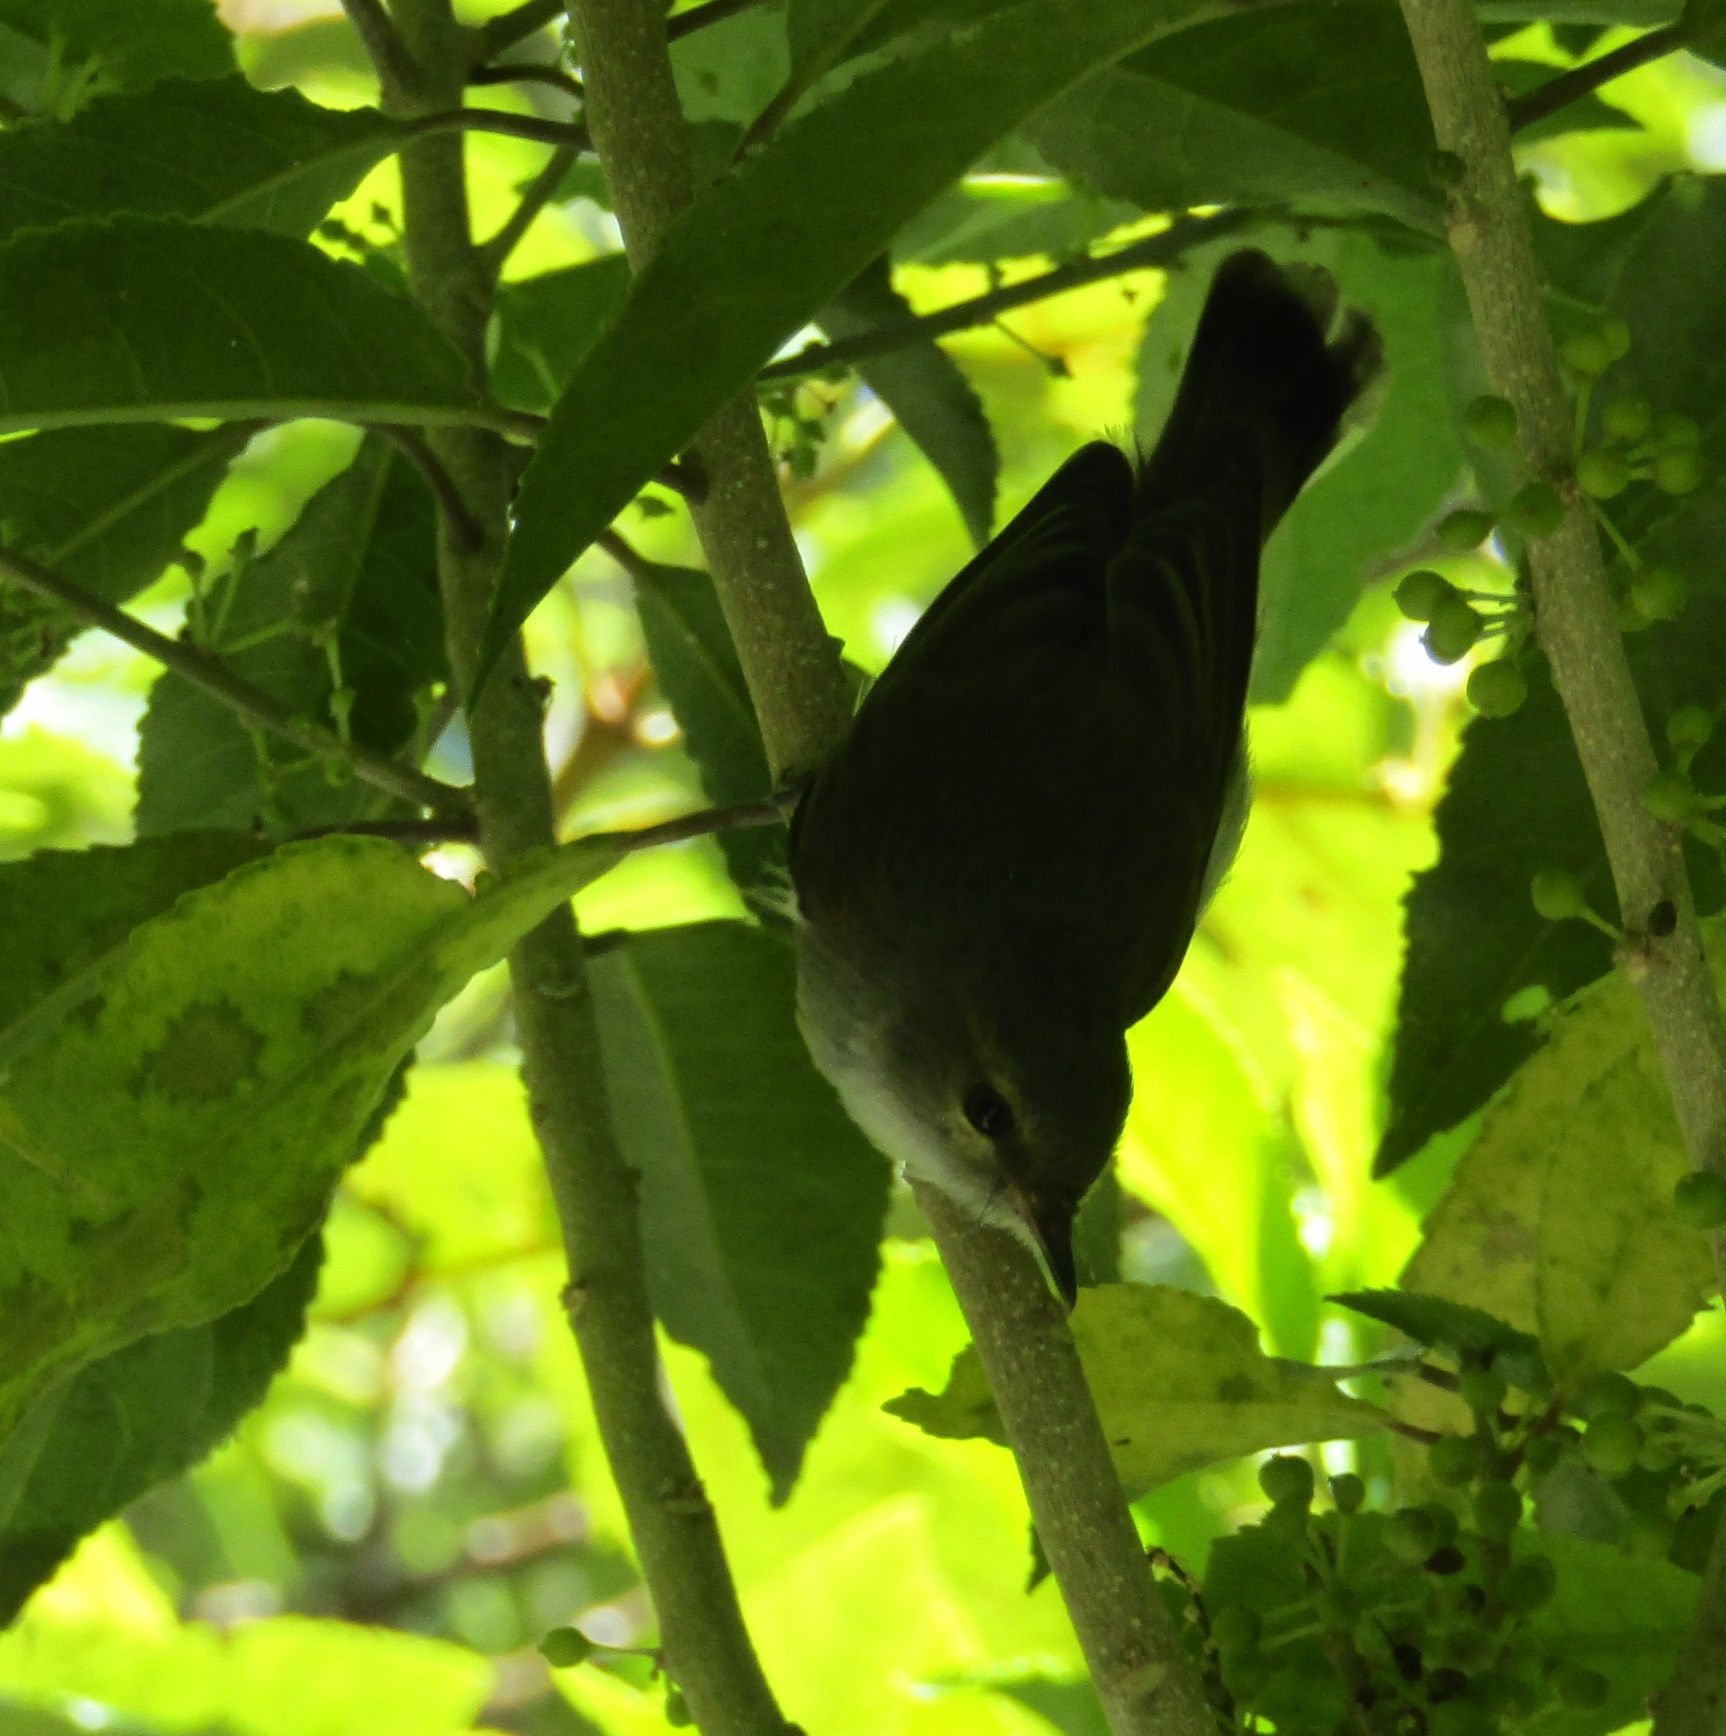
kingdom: Animalia
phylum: Chordata
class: Aves
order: Passeriformes
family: Acanthizidae
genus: Gerygone
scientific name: Gerygone igata
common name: Grey gerygone
